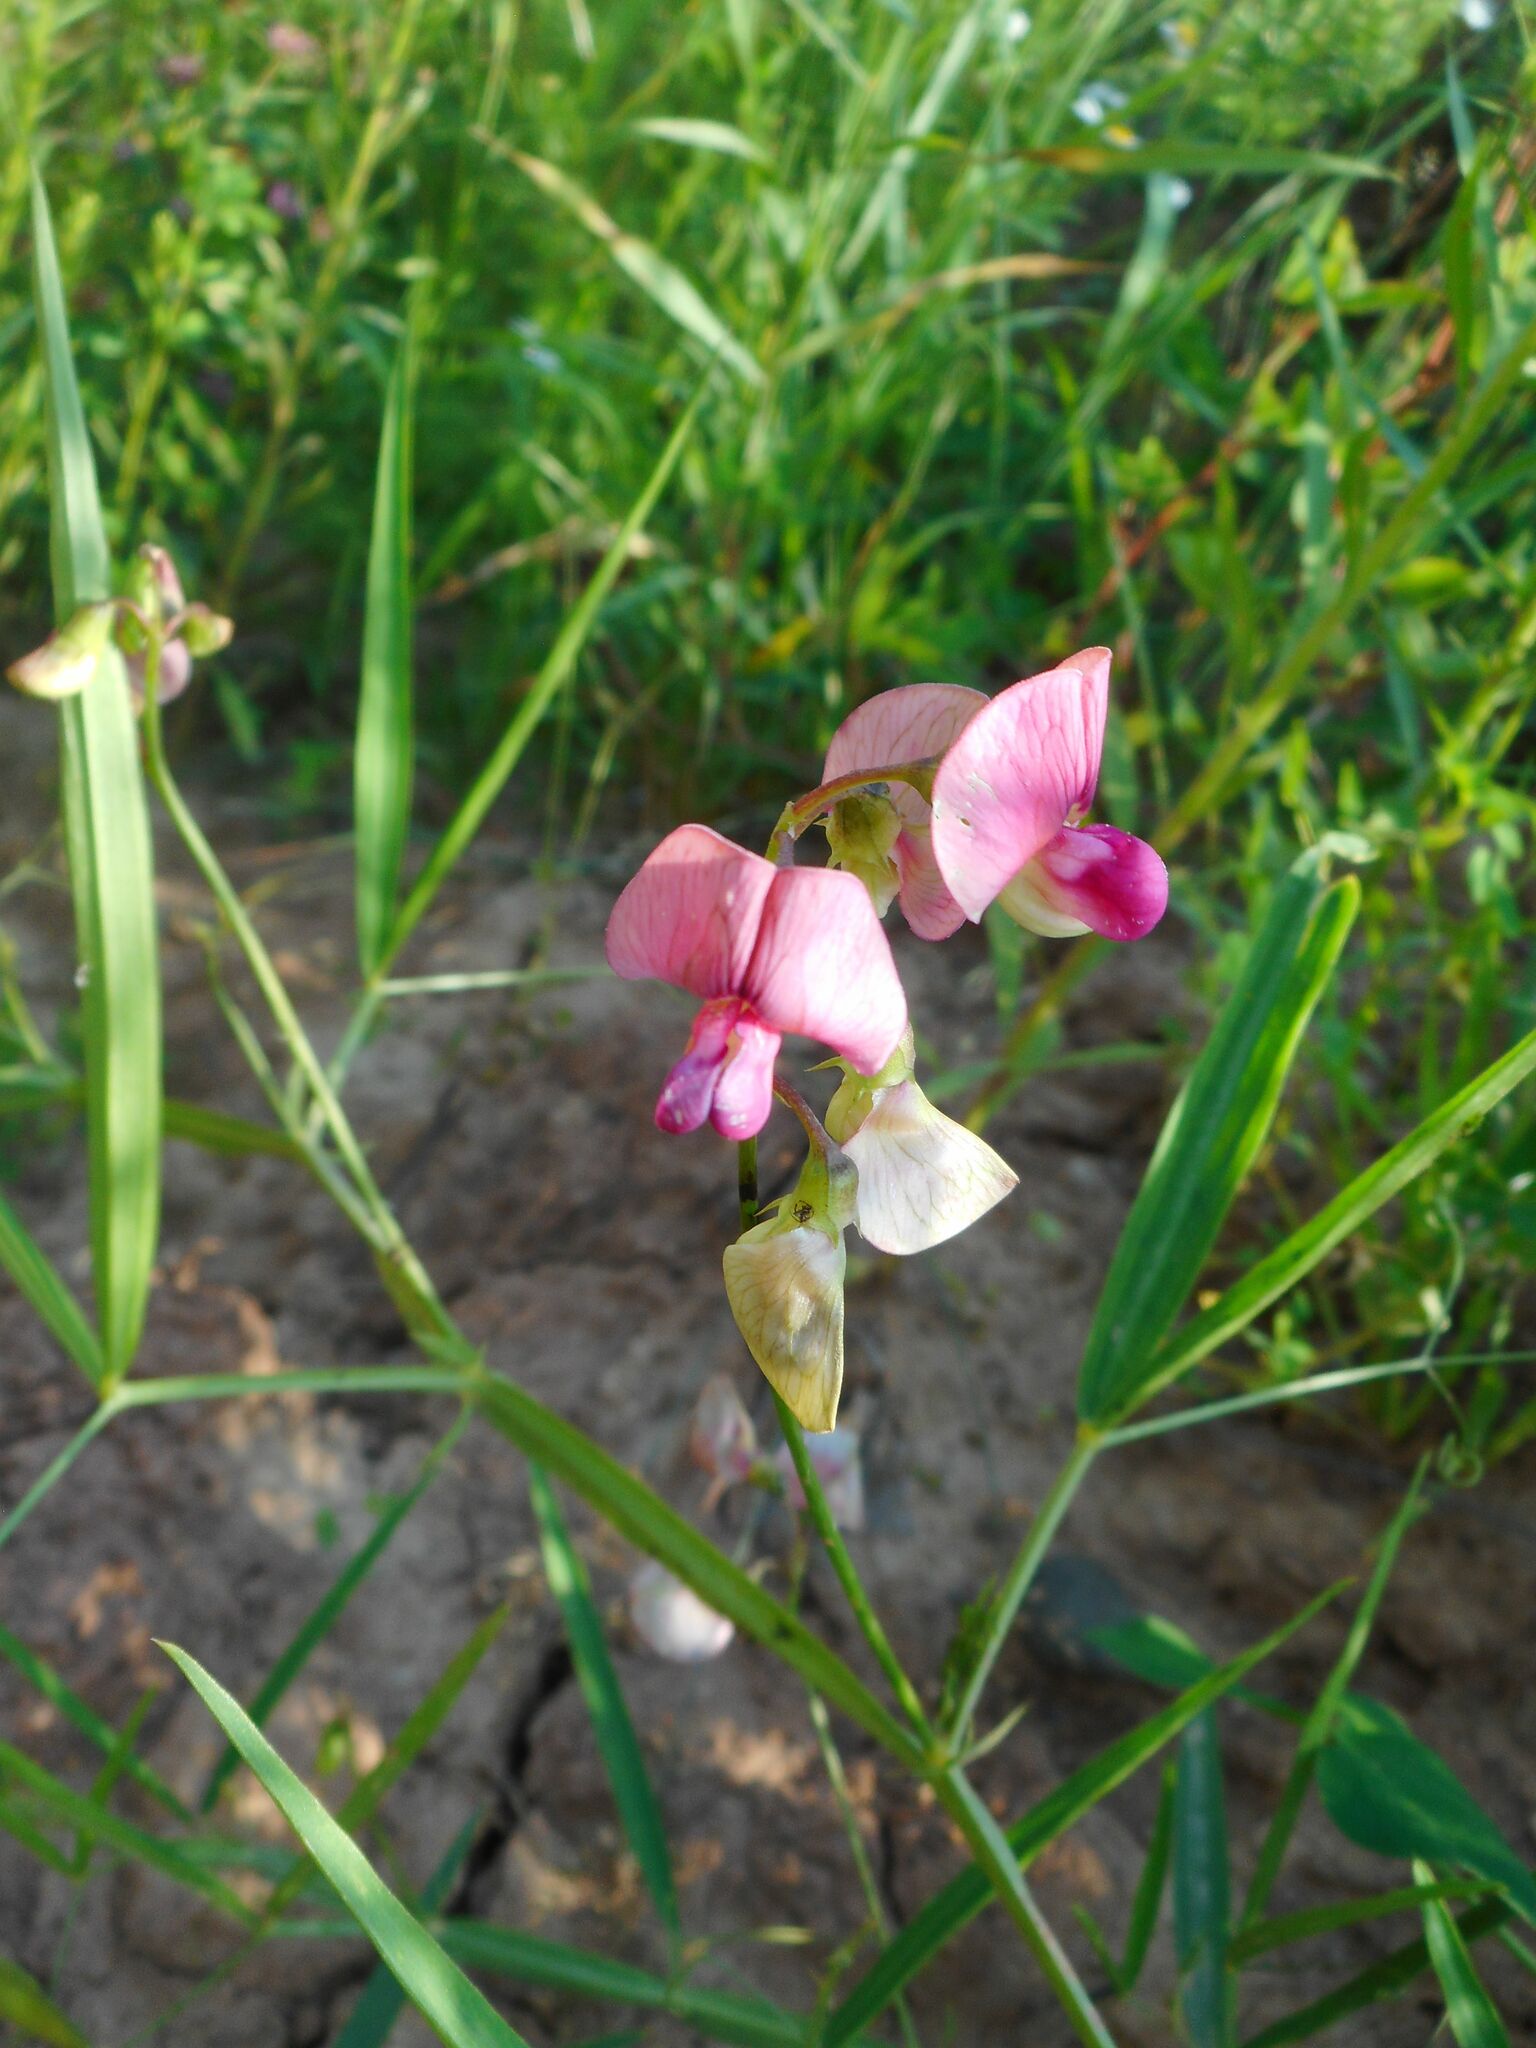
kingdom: Plantae
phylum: Tracheophyta
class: Magnoliopsida
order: Fabales
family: Fabaceae
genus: Lathyrus
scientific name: Lathyrus sylvestris
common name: Flat pea
